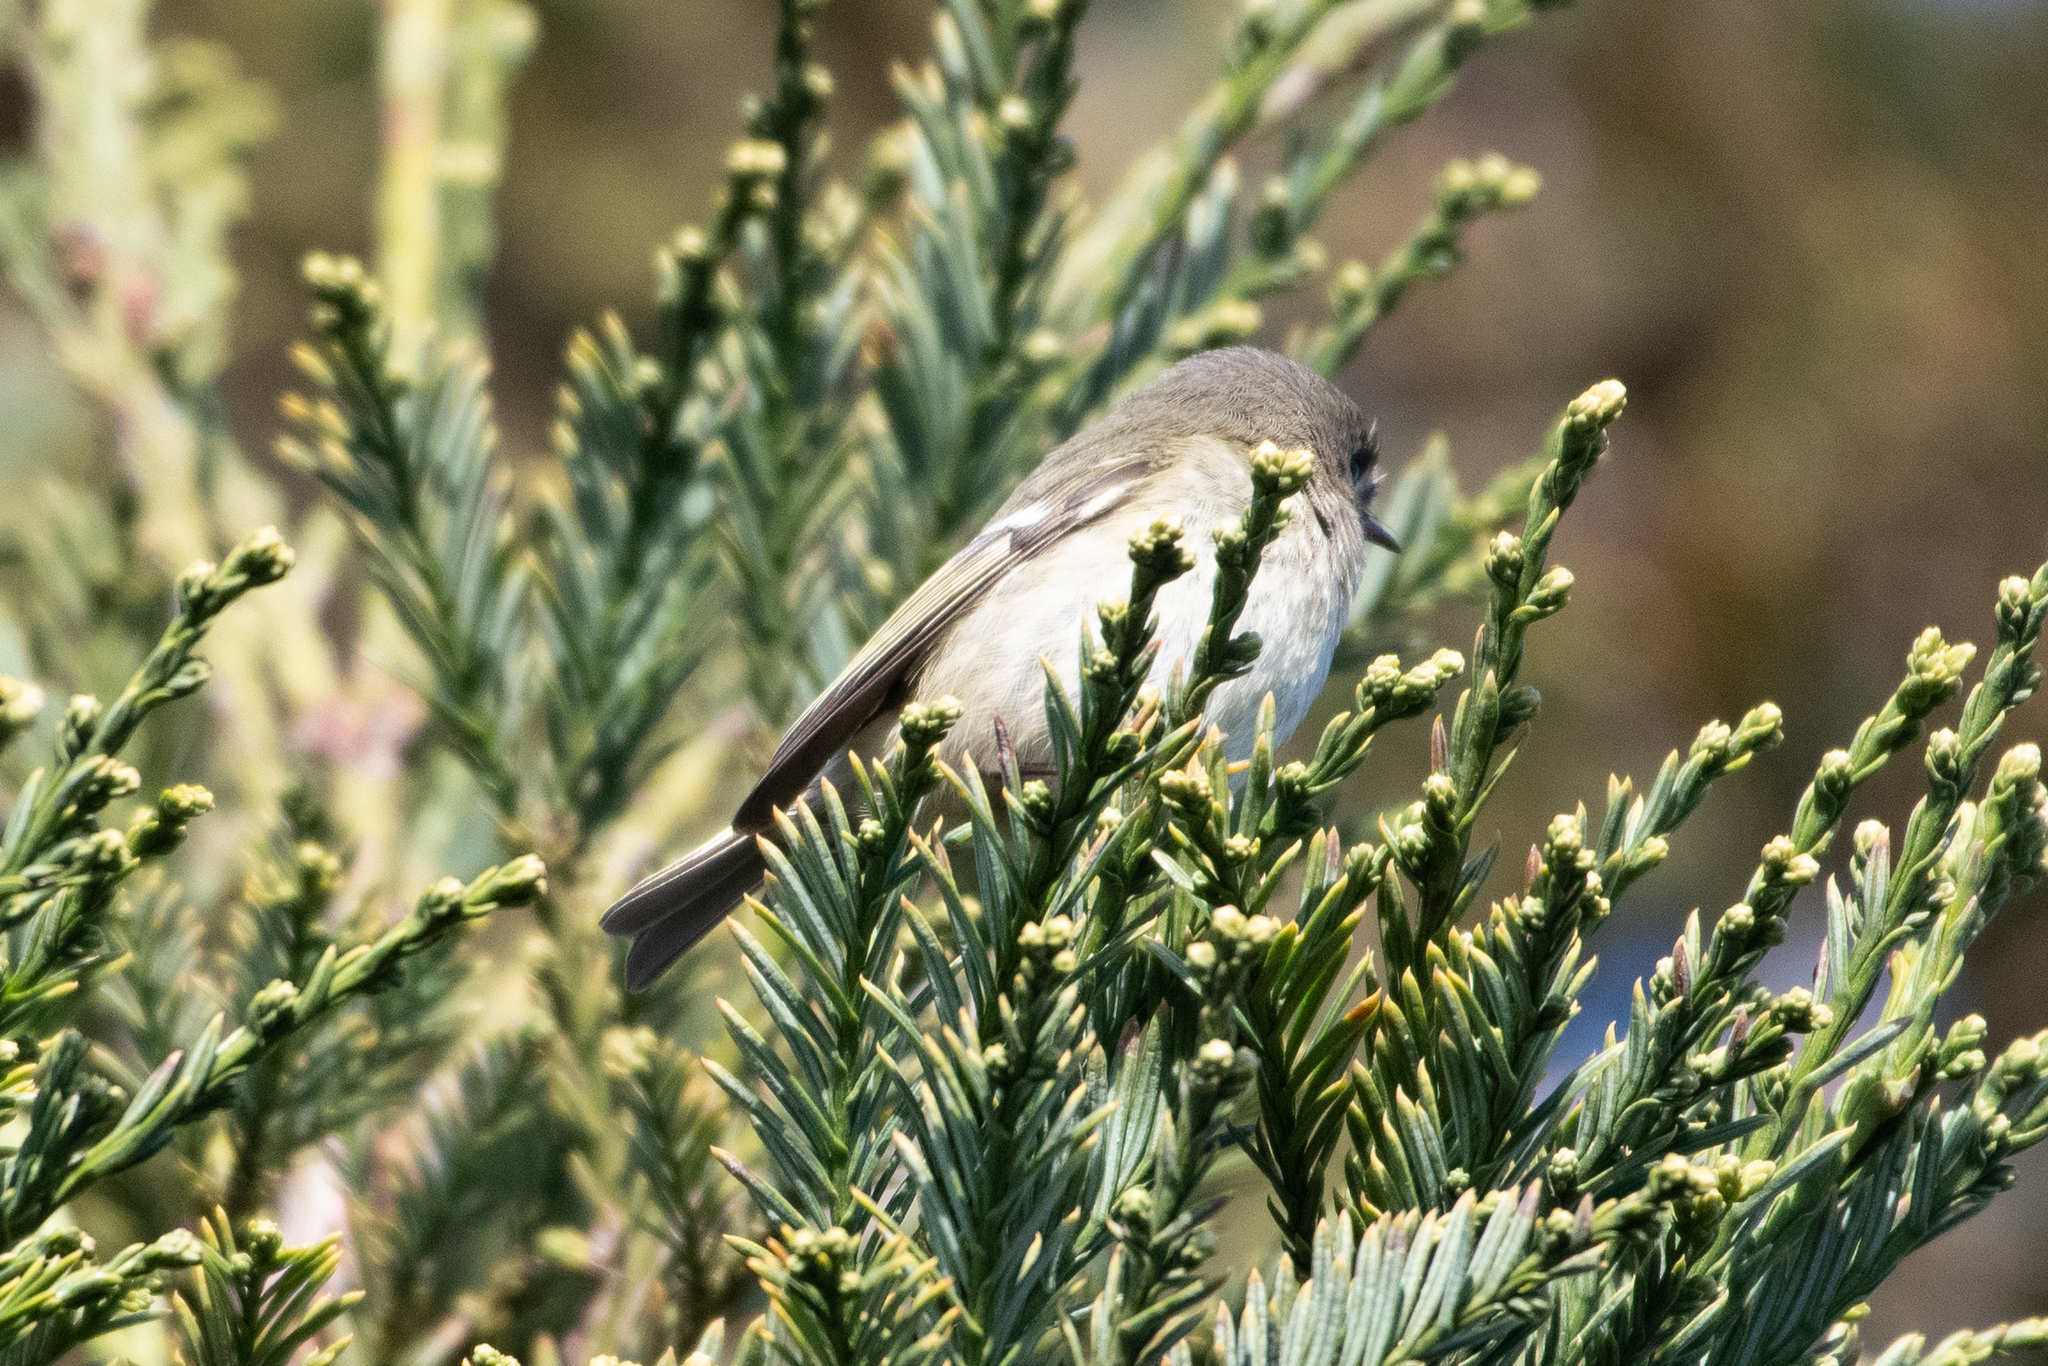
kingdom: Animalia
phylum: Chordata
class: Aves
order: Passeriformes
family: Regulidae
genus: Regulus
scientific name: Regulus calendula
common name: Ruby-crowned kinglet
